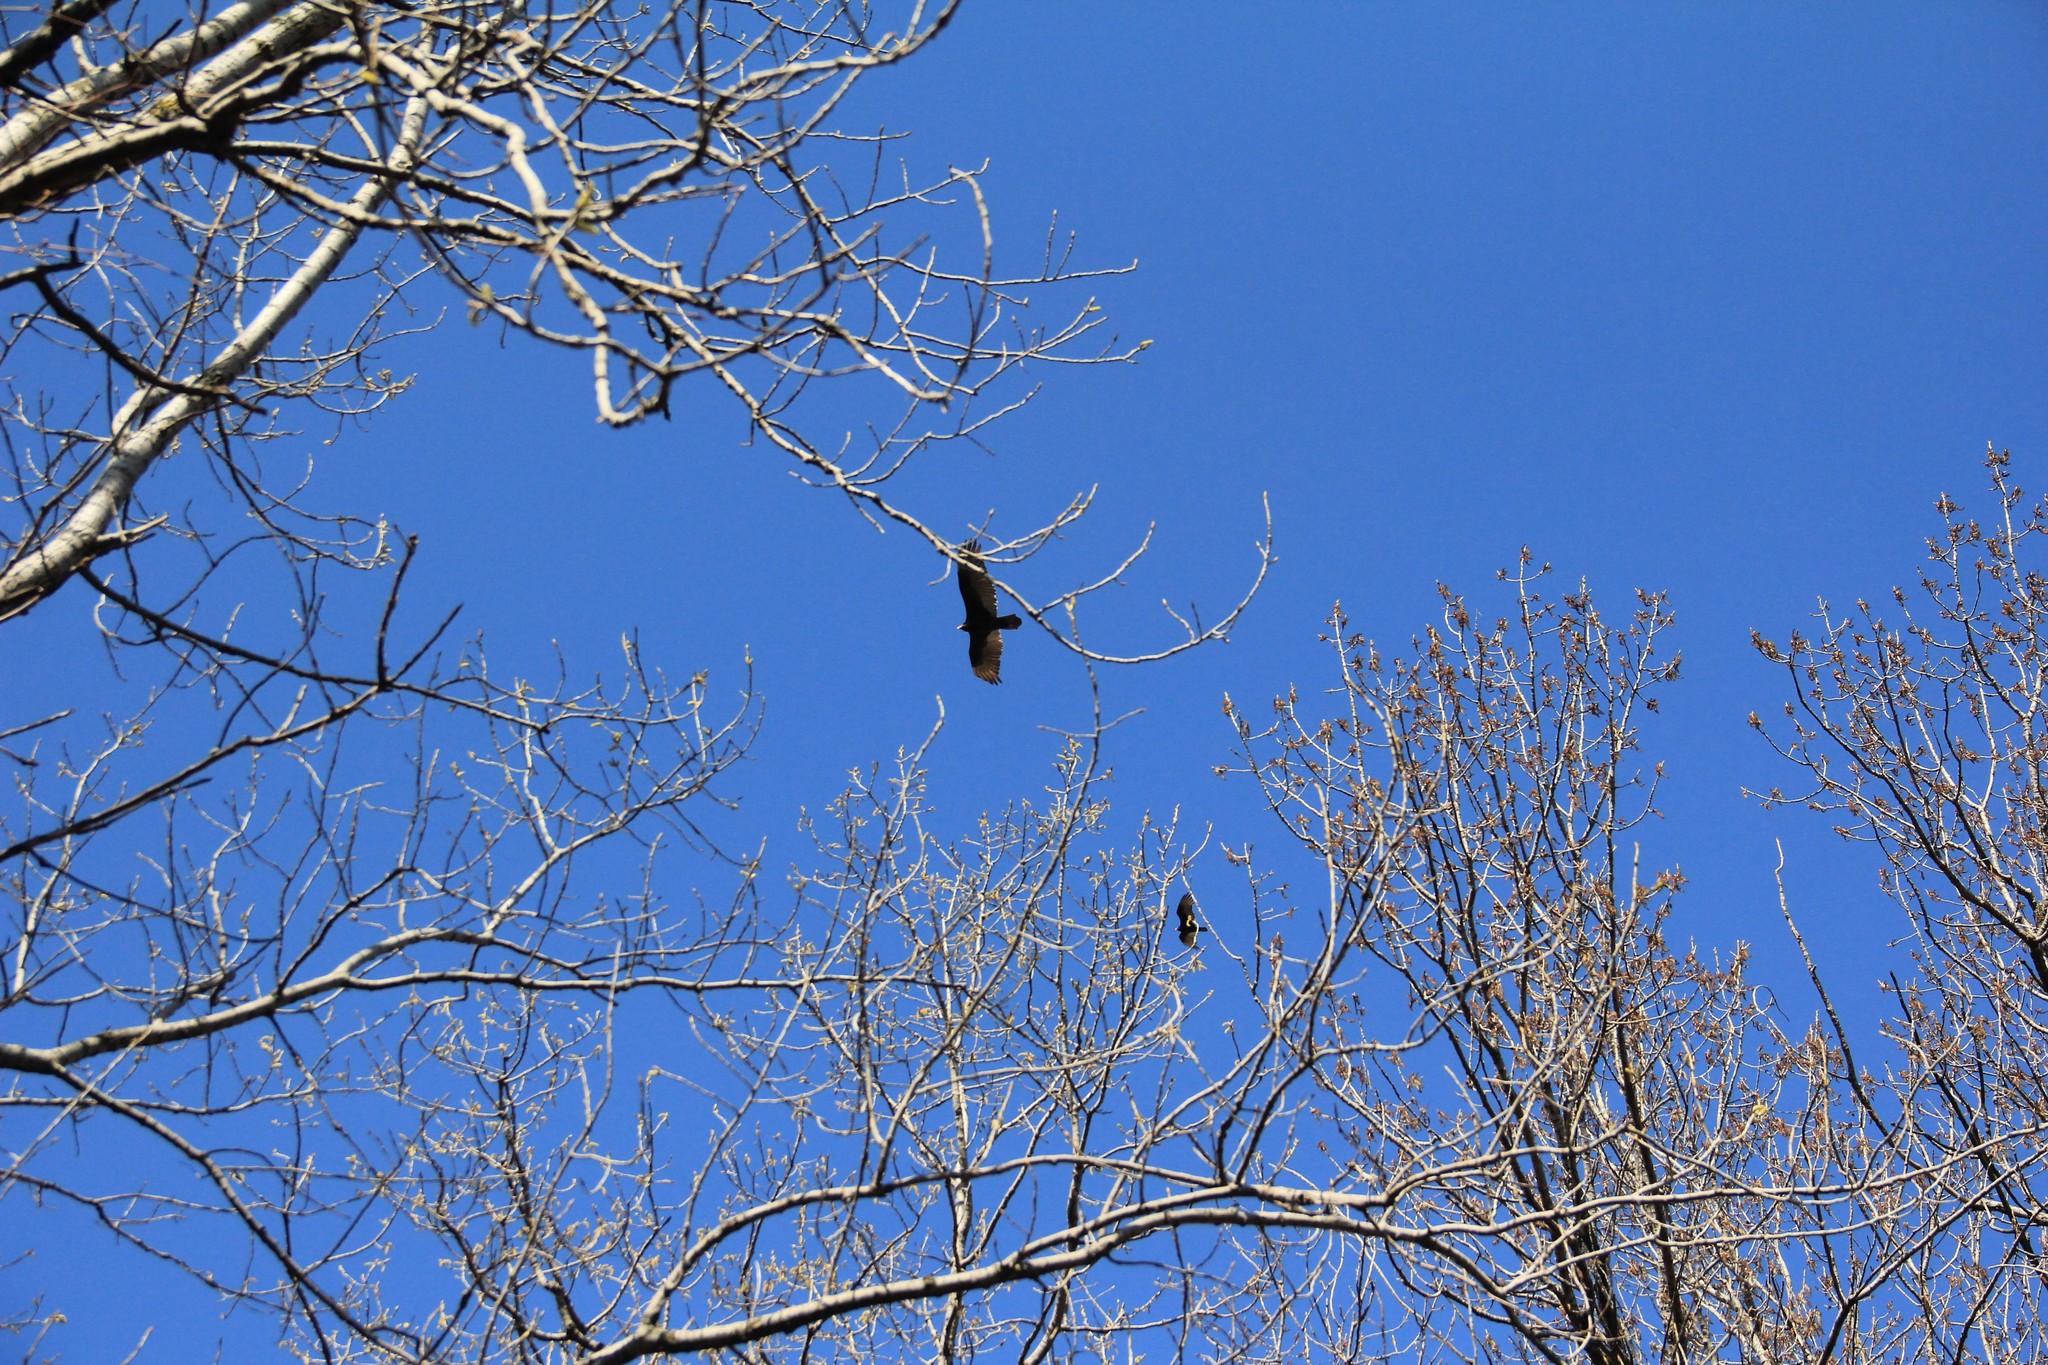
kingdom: Animalia
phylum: Chordata
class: Aves
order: Accipitriformes
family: Cathartidae
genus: Cathartes
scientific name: Cathartes aura
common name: Turkey vulture
